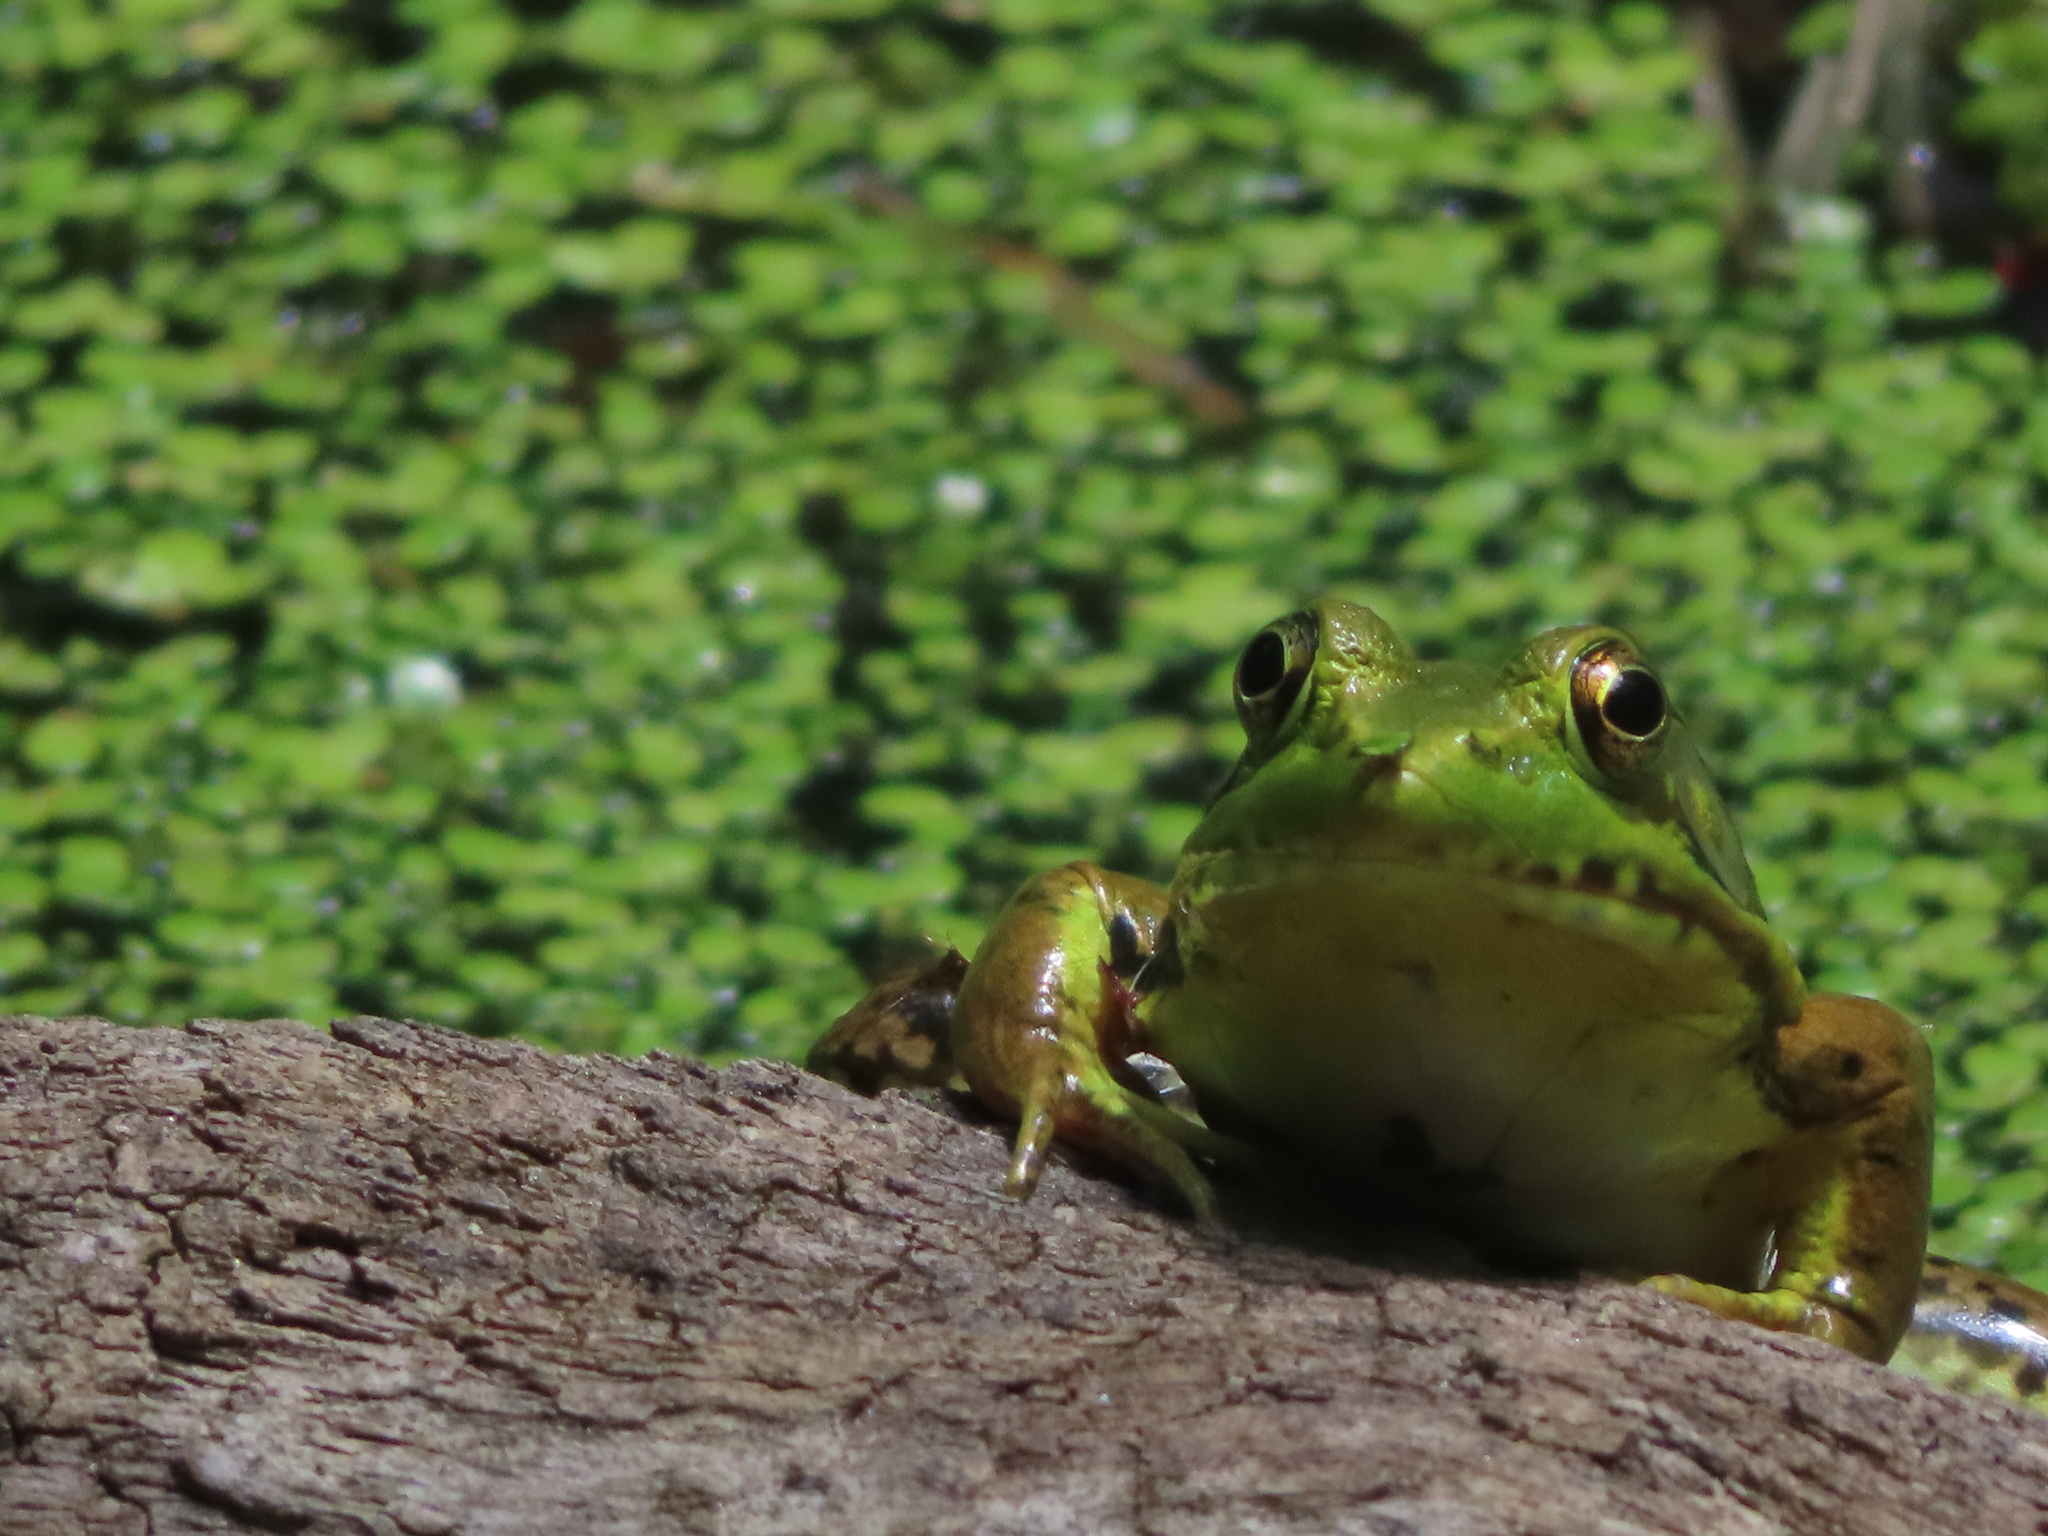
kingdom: Animalia
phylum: Chordata
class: Amphibia
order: Anura
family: Ranidae
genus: Lithobates
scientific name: Lithobates clamitans
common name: Green frog
